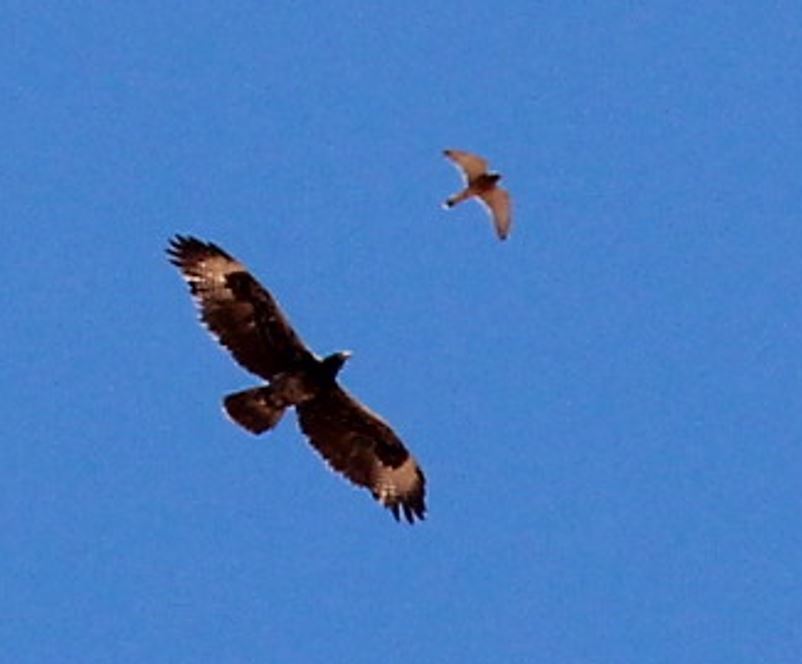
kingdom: Animalia
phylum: Chordata
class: Aves
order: Falconiformes
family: Falconidae
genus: Falco
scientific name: Falco rupicolus
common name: Rock kestrel
